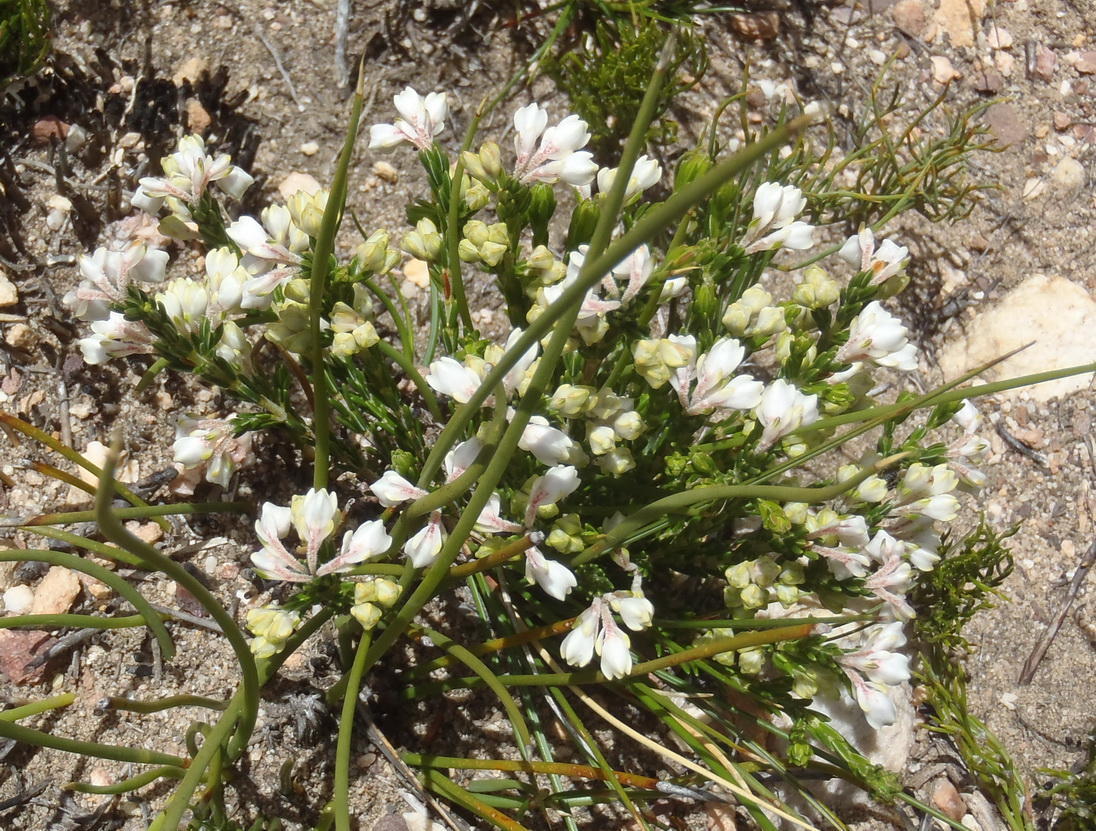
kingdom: Plantae
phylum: Tracheophyta
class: Magnoliopsida
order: Ericales
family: Ericaceae
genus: Erica
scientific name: Erica costatisepala
